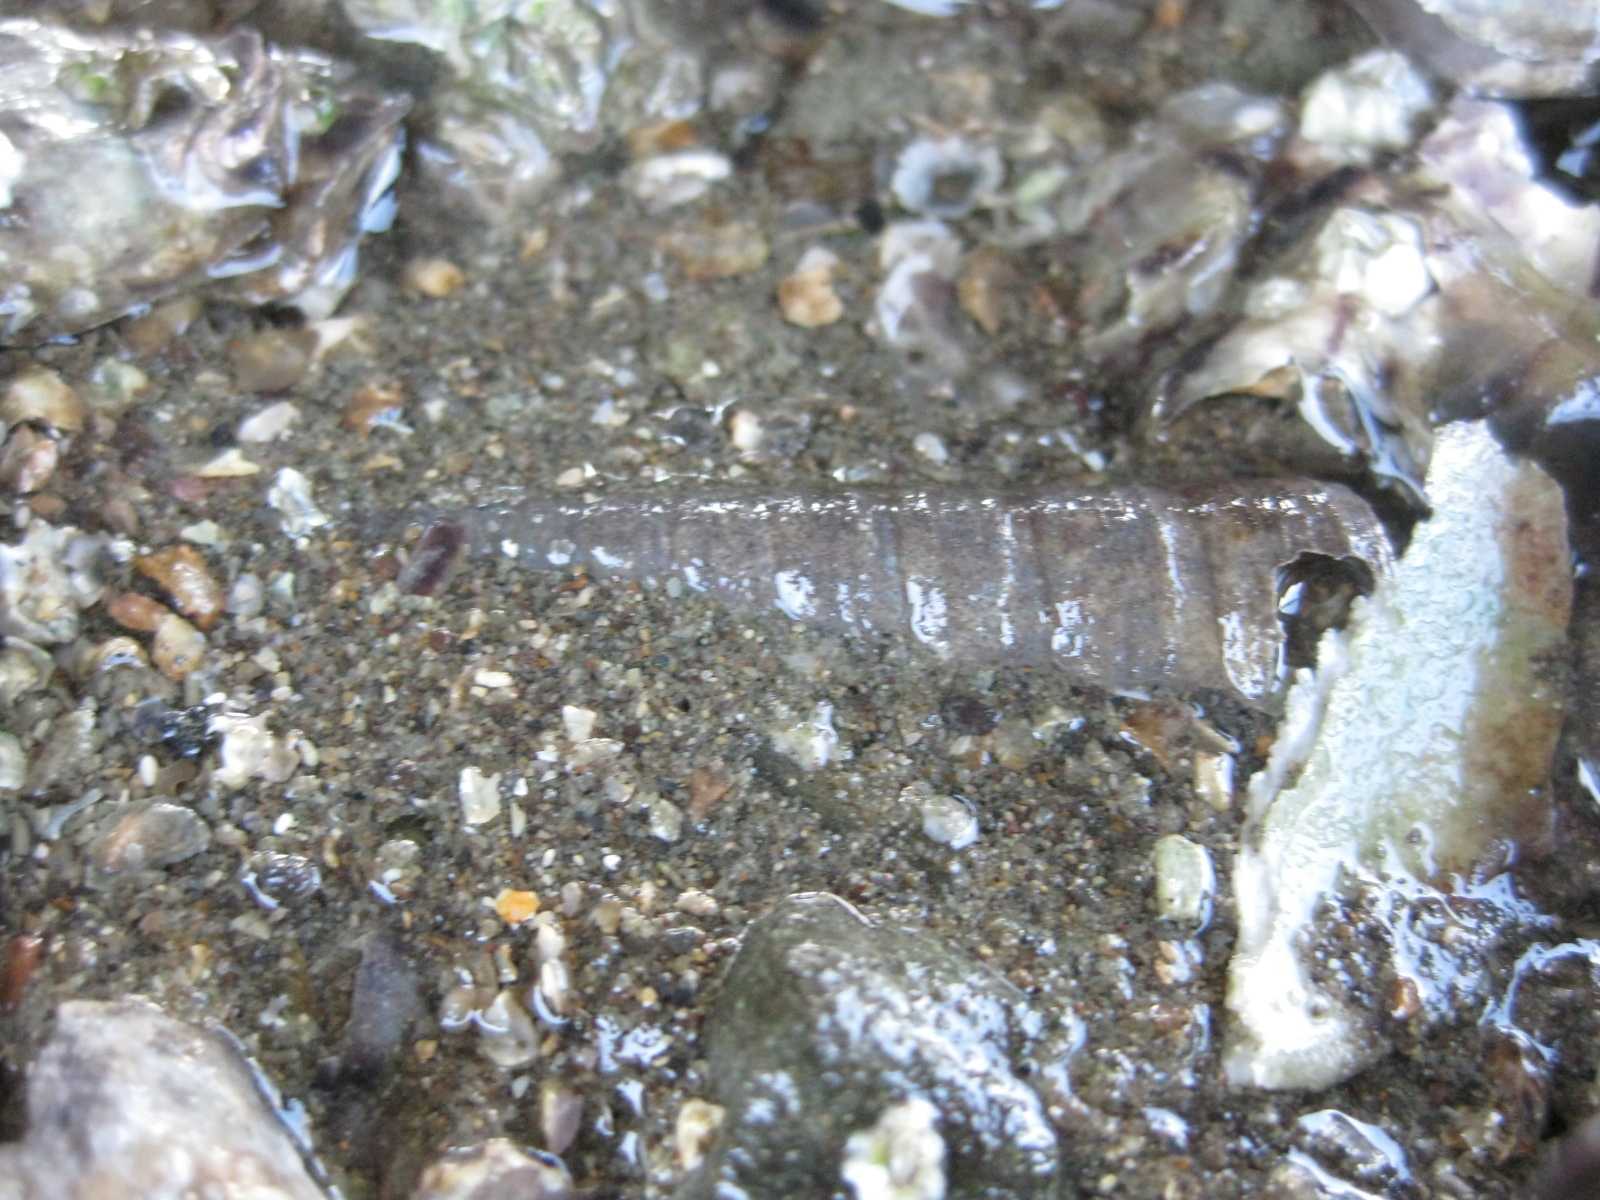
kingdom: Animalia
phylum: Mollusca
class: Gastropoda
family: Turritellidae
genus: Maoricolpus
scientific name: Maoricolpus roseus
